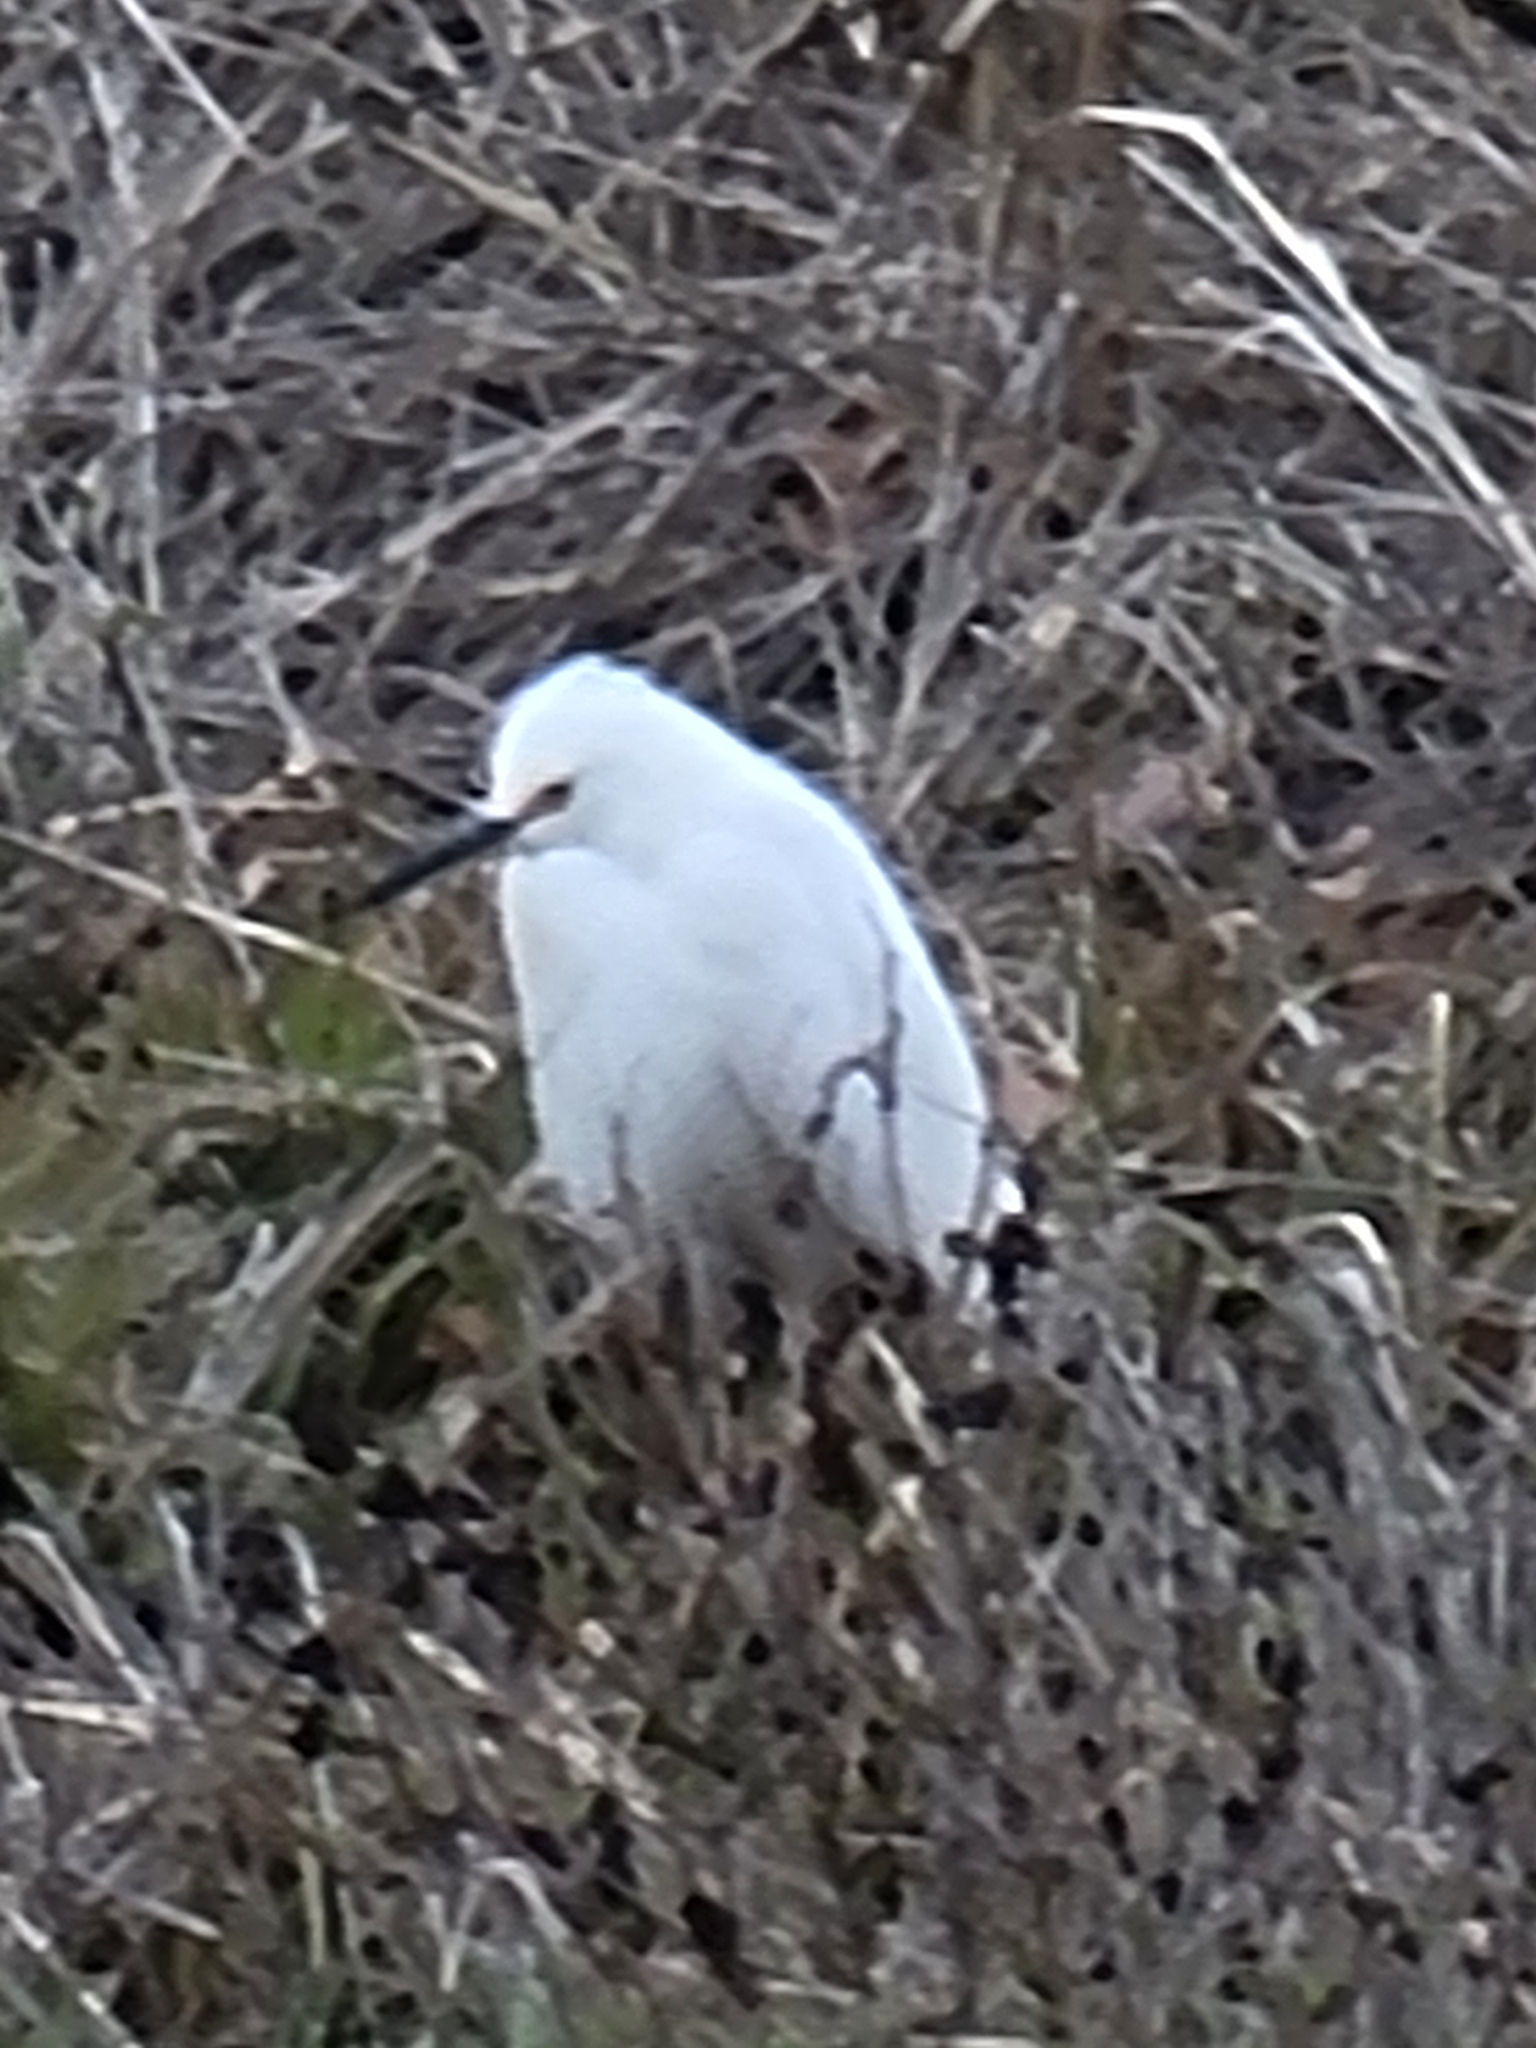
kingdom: Animalia
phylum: Chordata
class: Aves
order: Pelecaniformes
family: Ardeidae
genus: Egretta
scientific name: Egretta thula
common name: Snowy egret
